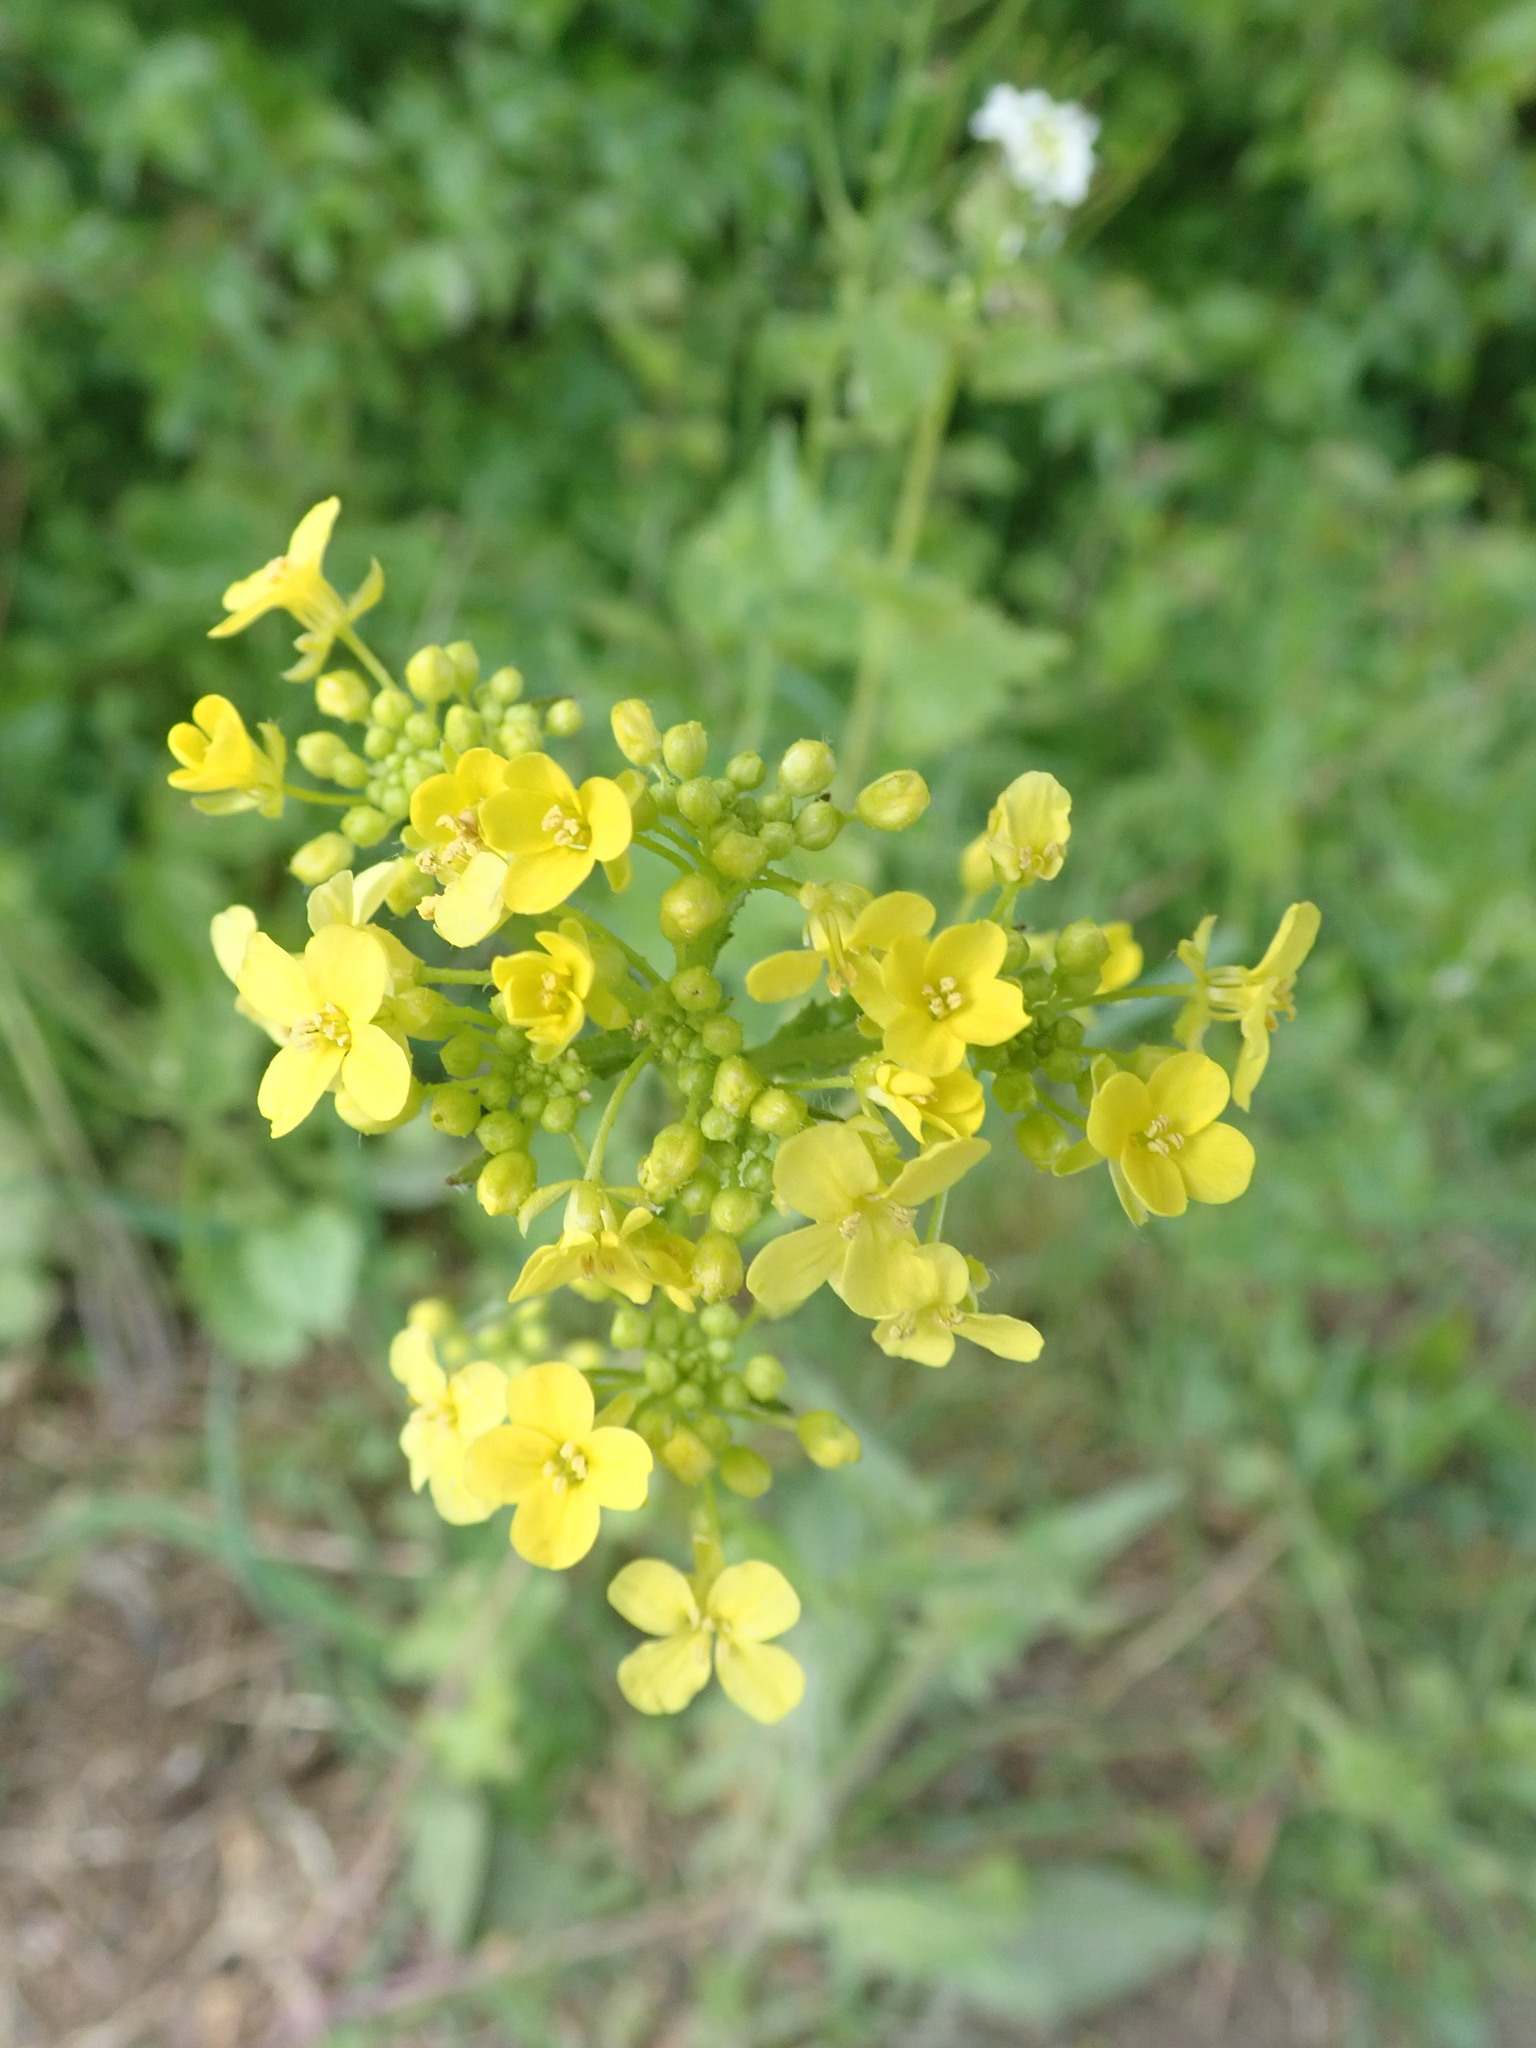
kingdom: Plantae
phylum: Tracheophyta
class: Magnoliopsida
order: Brassicales
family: Brassicaceae
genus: Bunias
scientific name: Bunias orientalis
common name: Warty-cabbage
